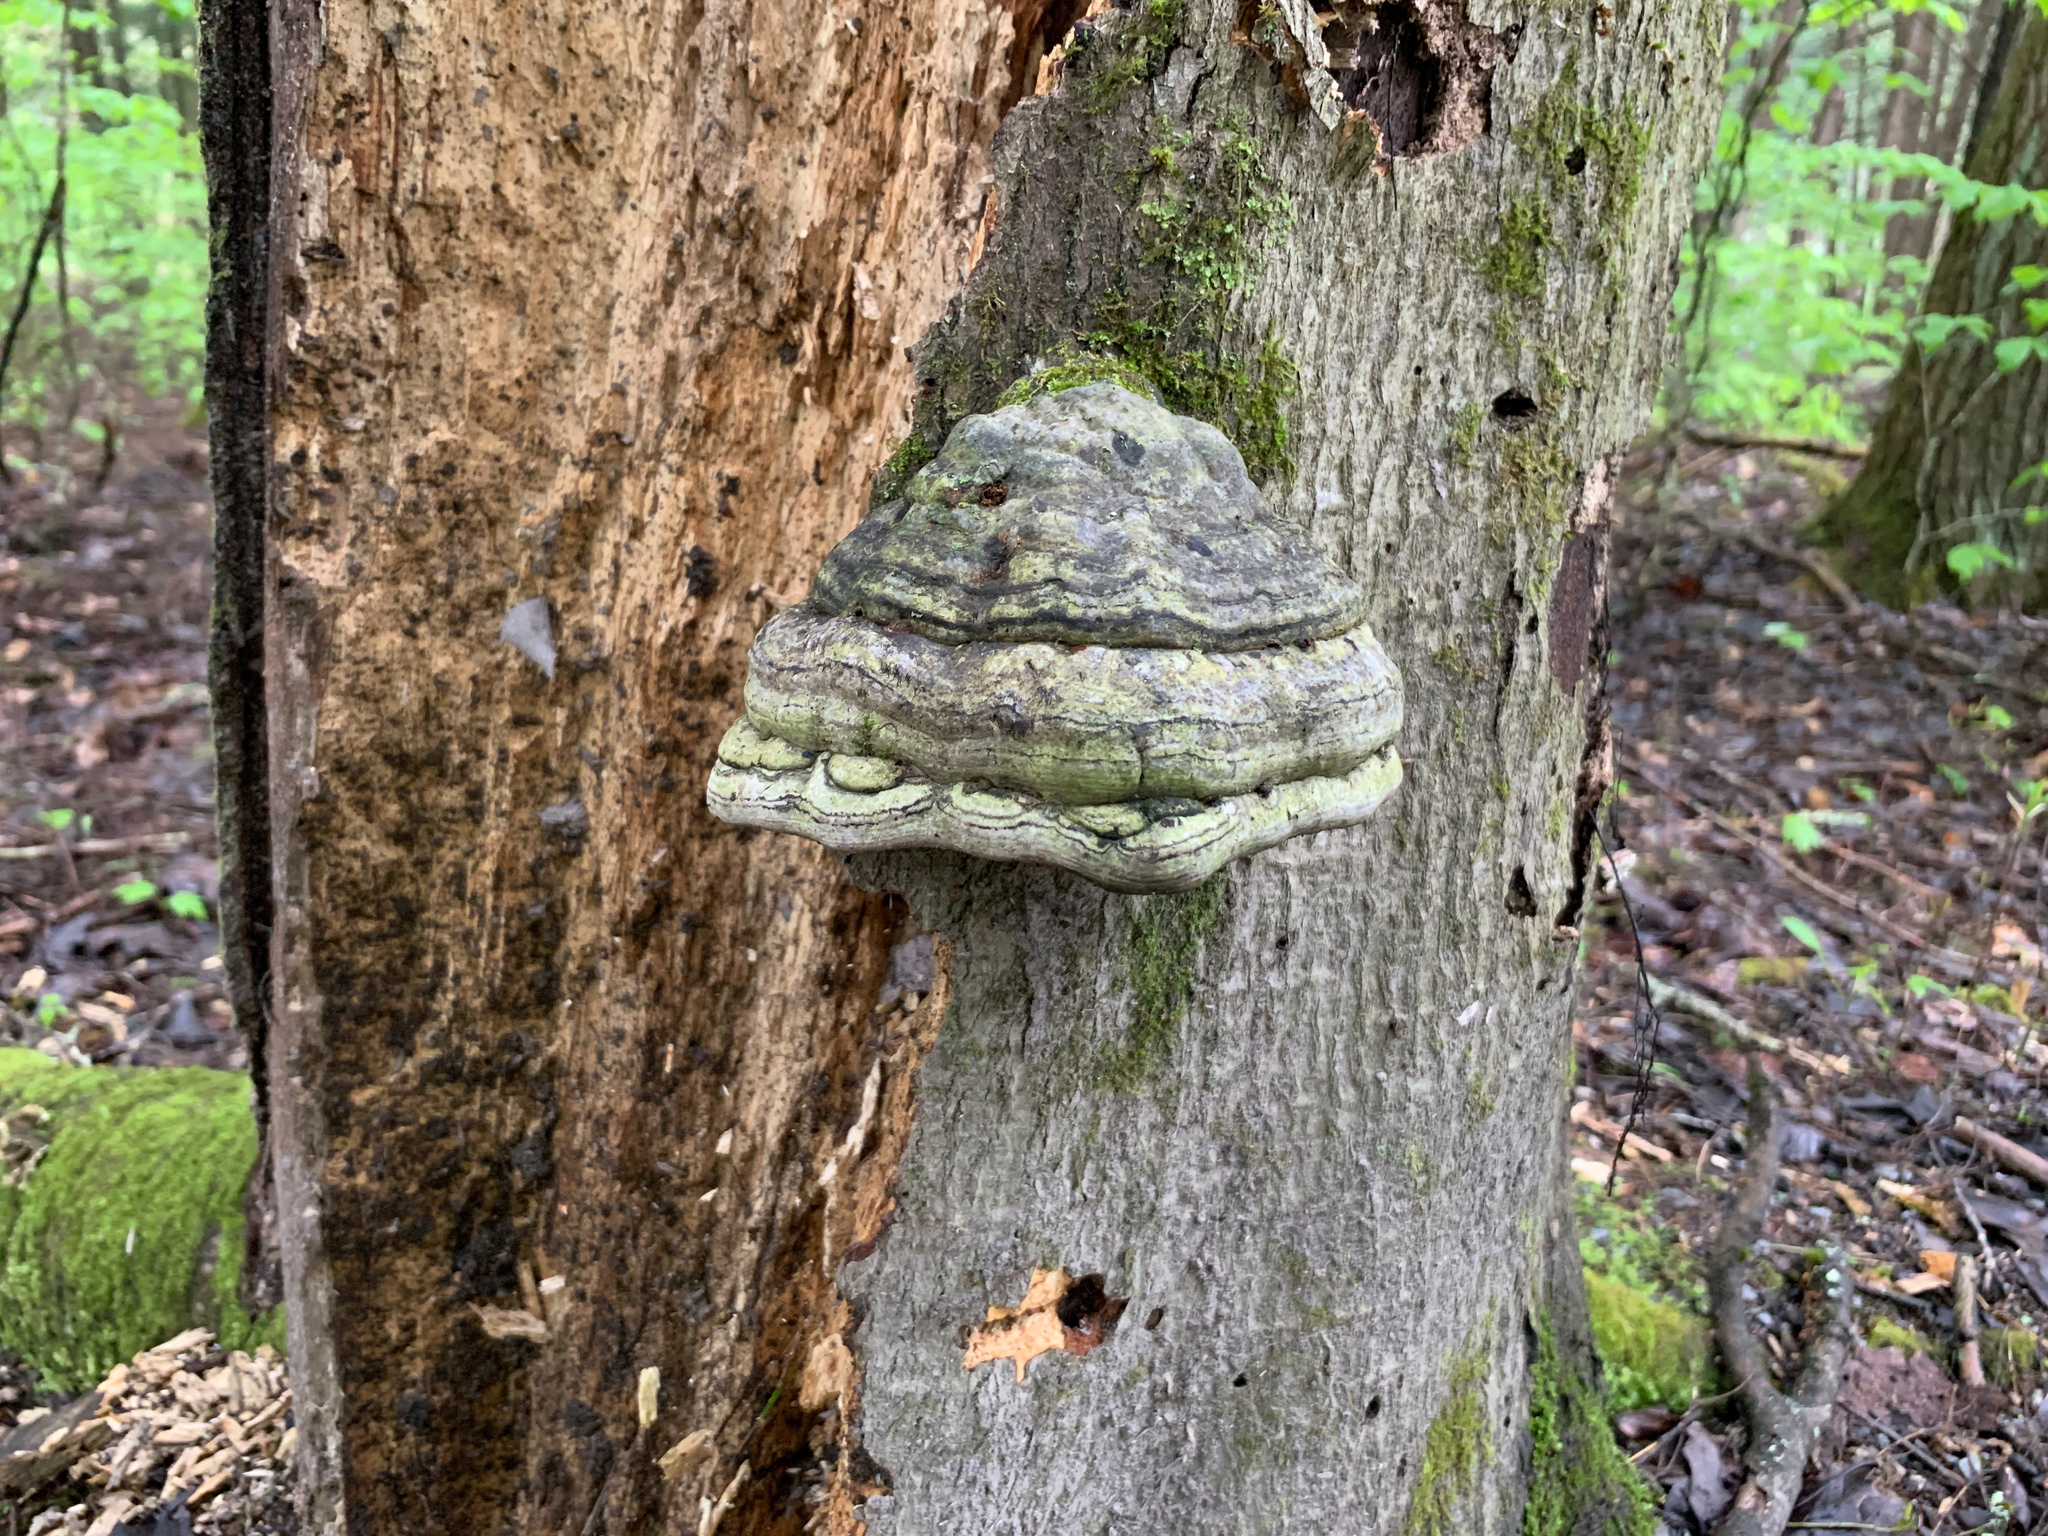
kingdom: Fungi
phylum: Basidiomycota
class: Agaricomycetes
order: Polyporales
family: Polyporaceae
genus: Fomes
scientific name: Fomes fomentarius
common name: Hoof fungus
